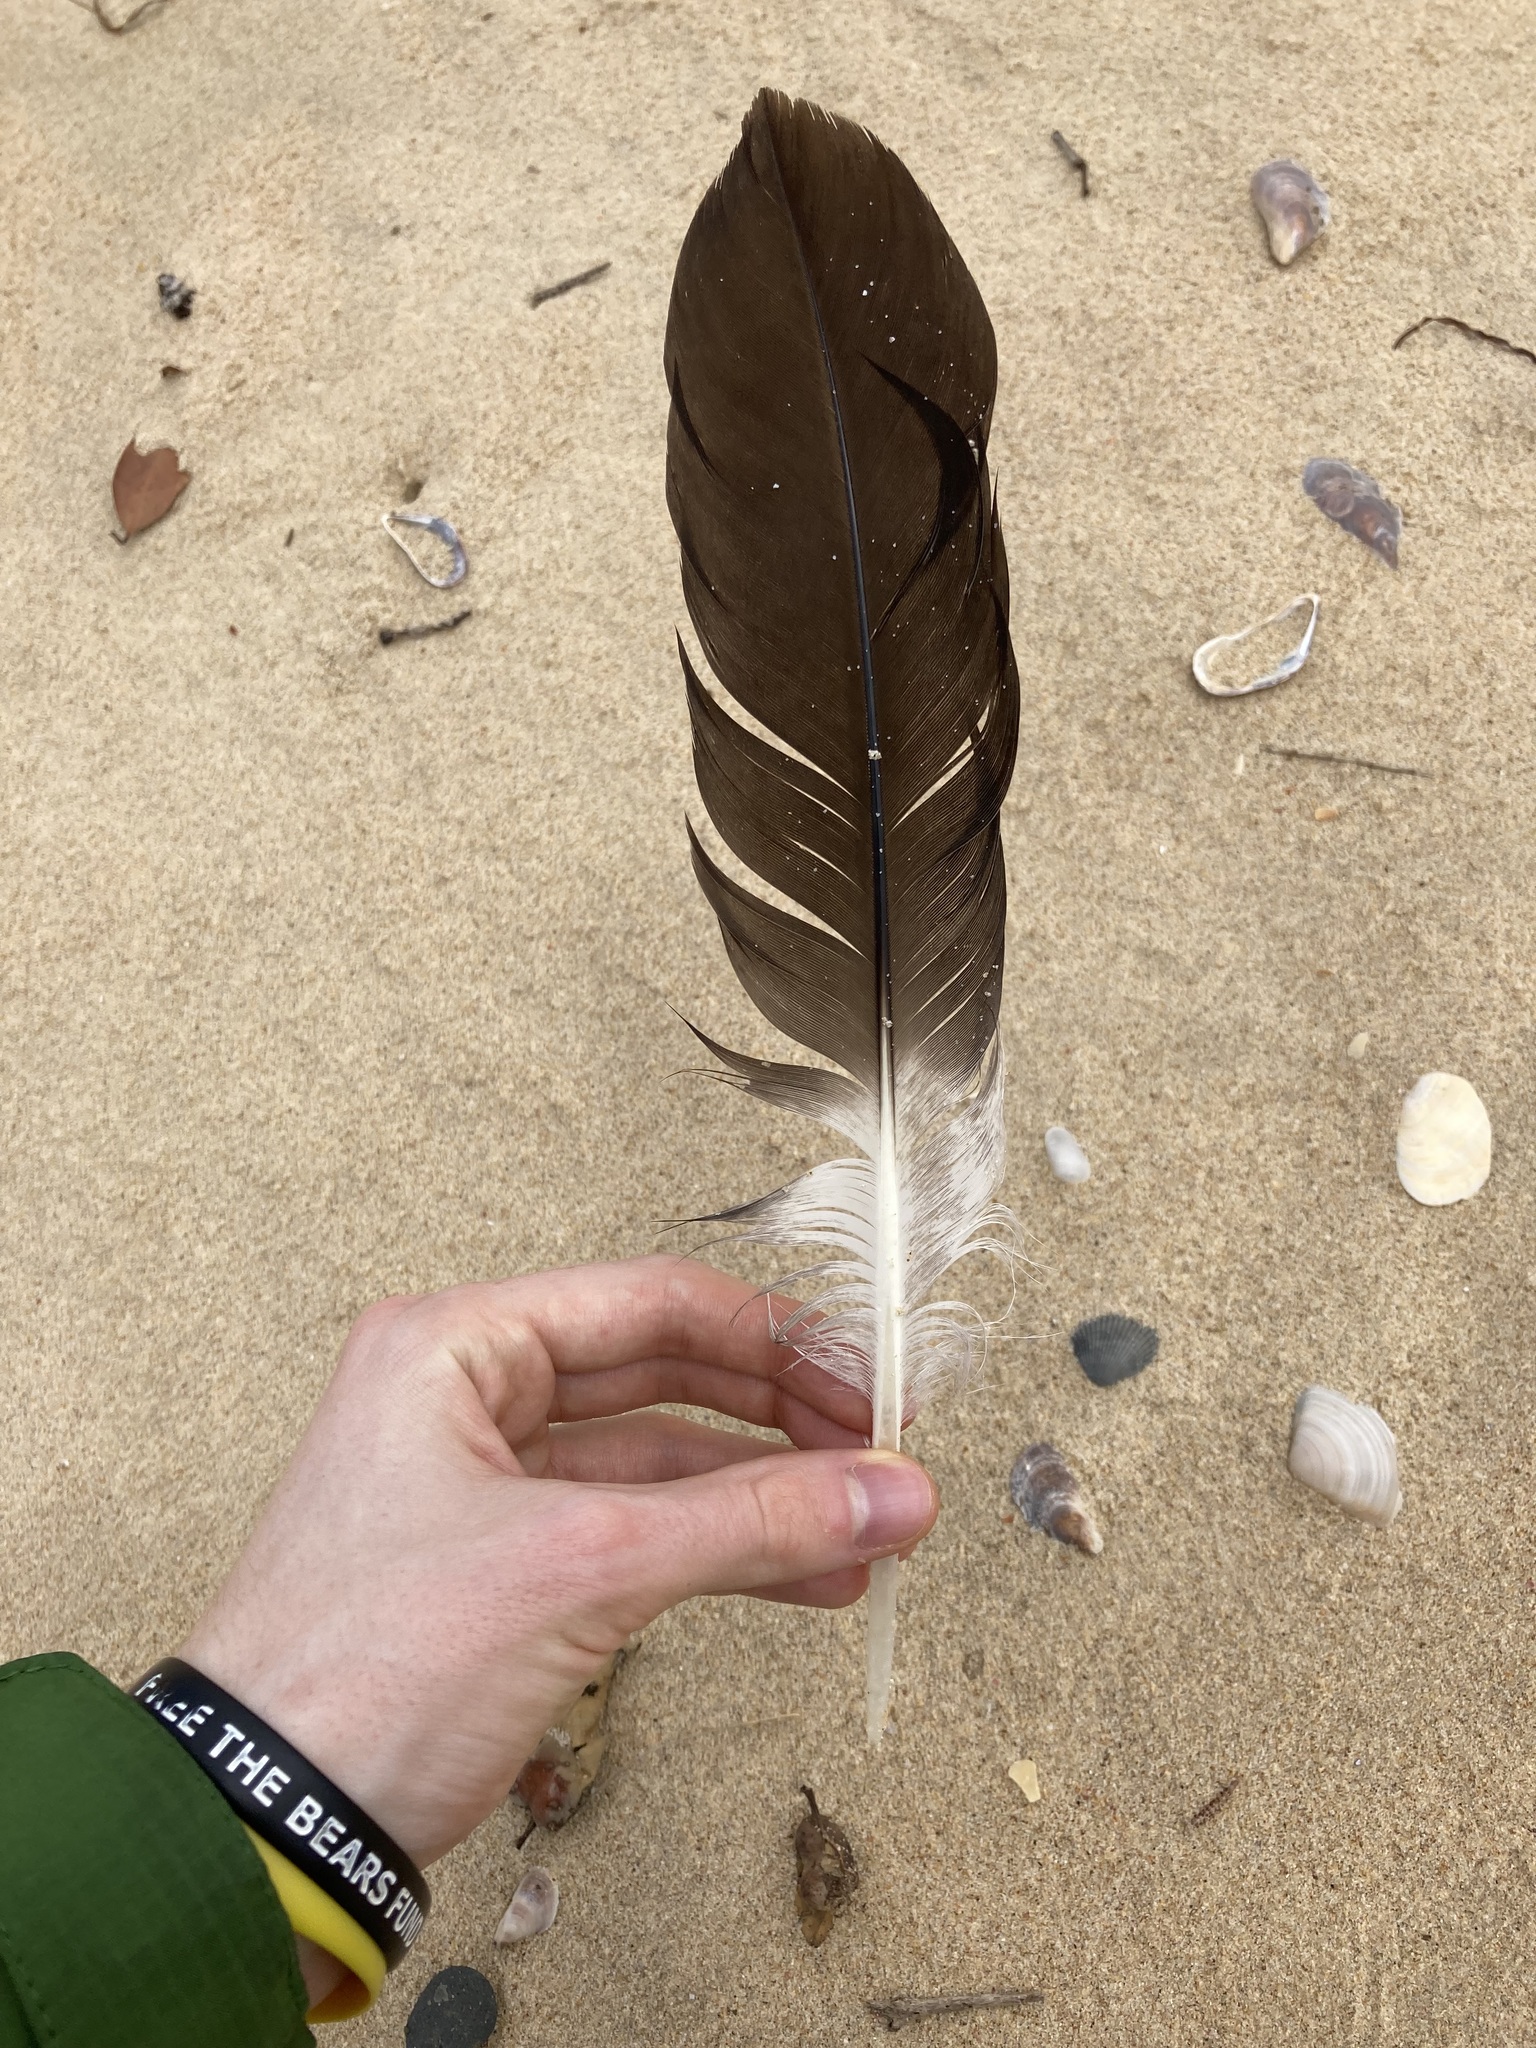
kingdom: Animalia
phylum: Chordata
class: Aves
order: Pelecaniformes
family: Pelecanidae
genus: Pelecanus
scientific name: Pelecanus conspicillatus
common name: Australian pelican
